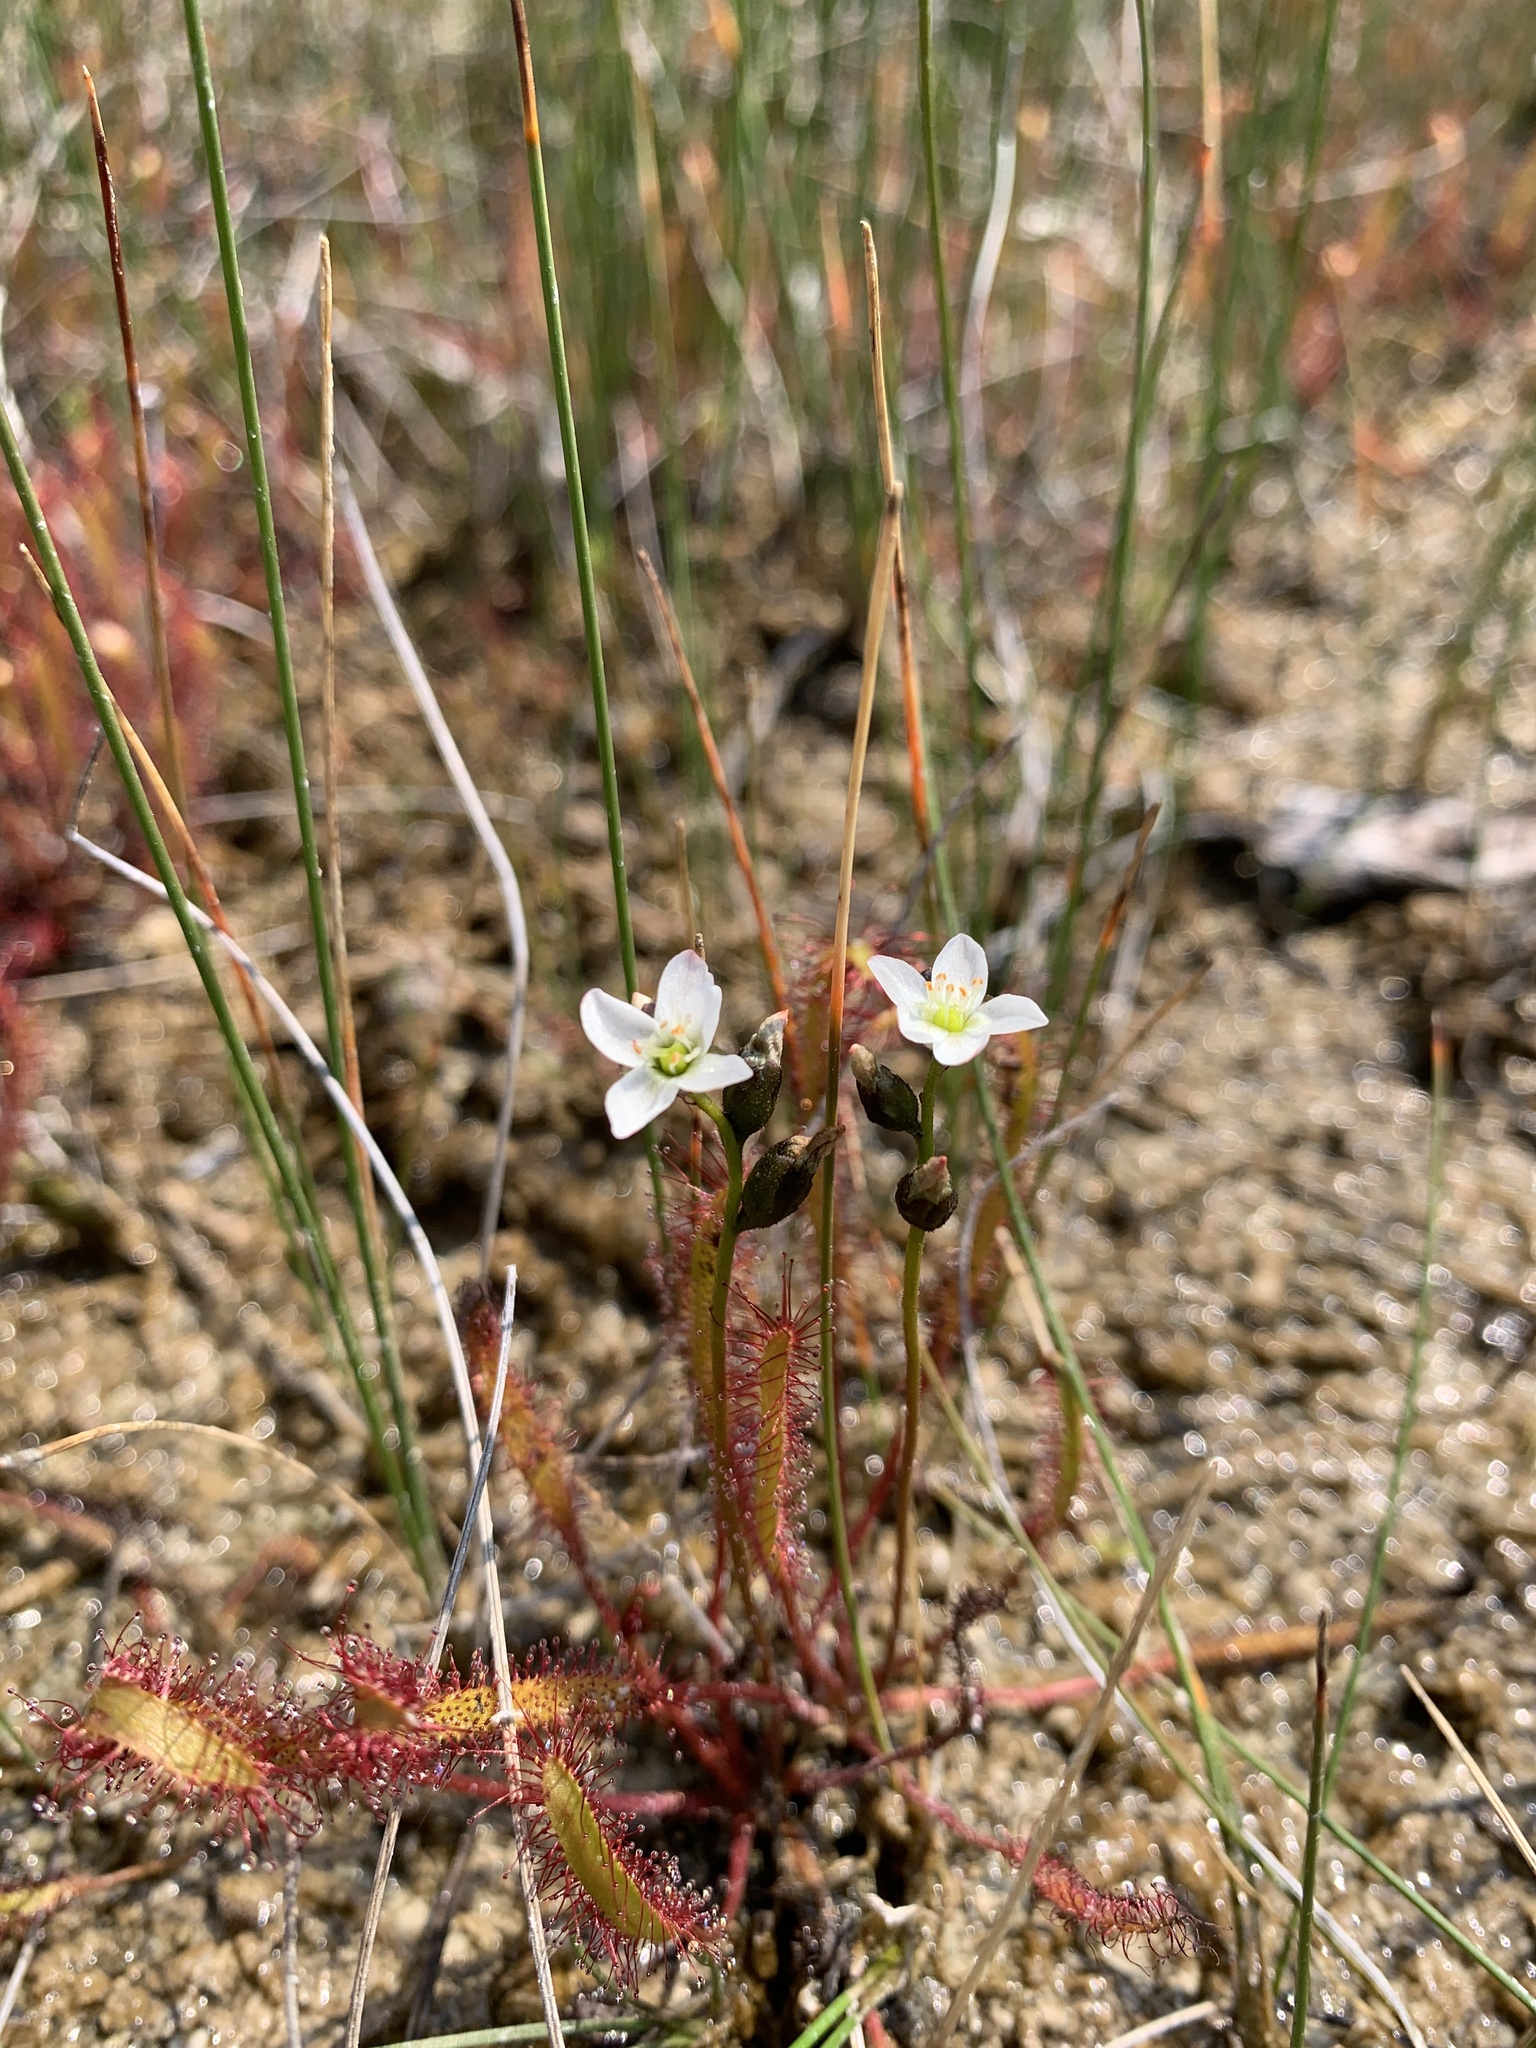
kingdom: Plantae
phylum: Tracheophyta
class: Magnoliopsida
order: Caryophyllales
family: Droseraceae
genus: Drosera
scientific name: Drosera linearis
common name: Linear-leaved sundew
